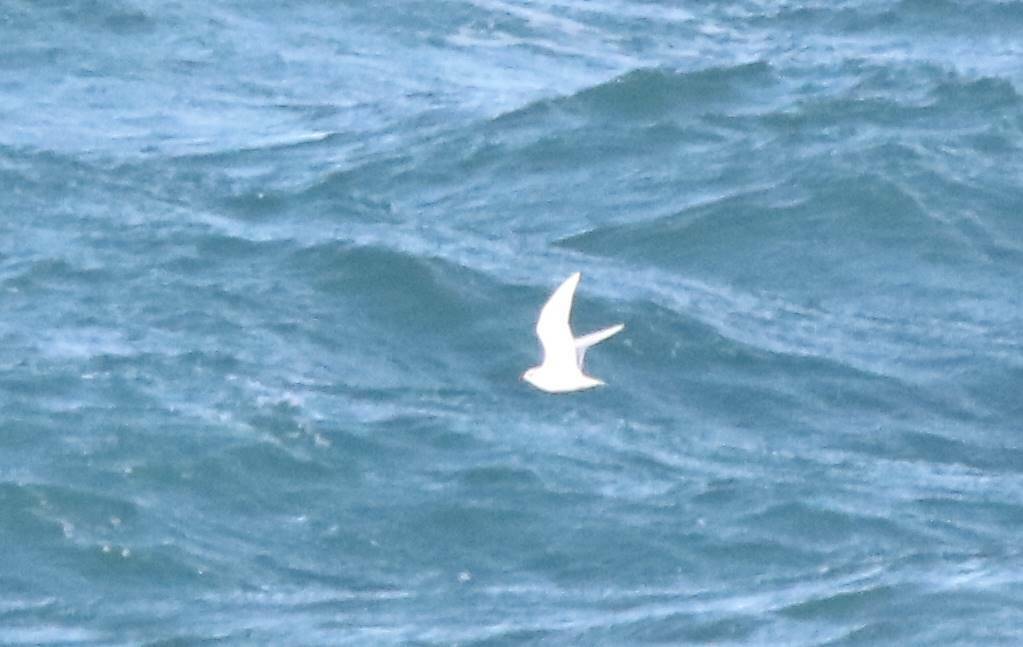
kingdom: Animalia
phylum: Chordata
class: Aves
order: Charadriiformes
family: Laridae
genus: Ichthyaetus
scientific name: Ichthyaetus melanocephalus
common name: Mediterranean gull
